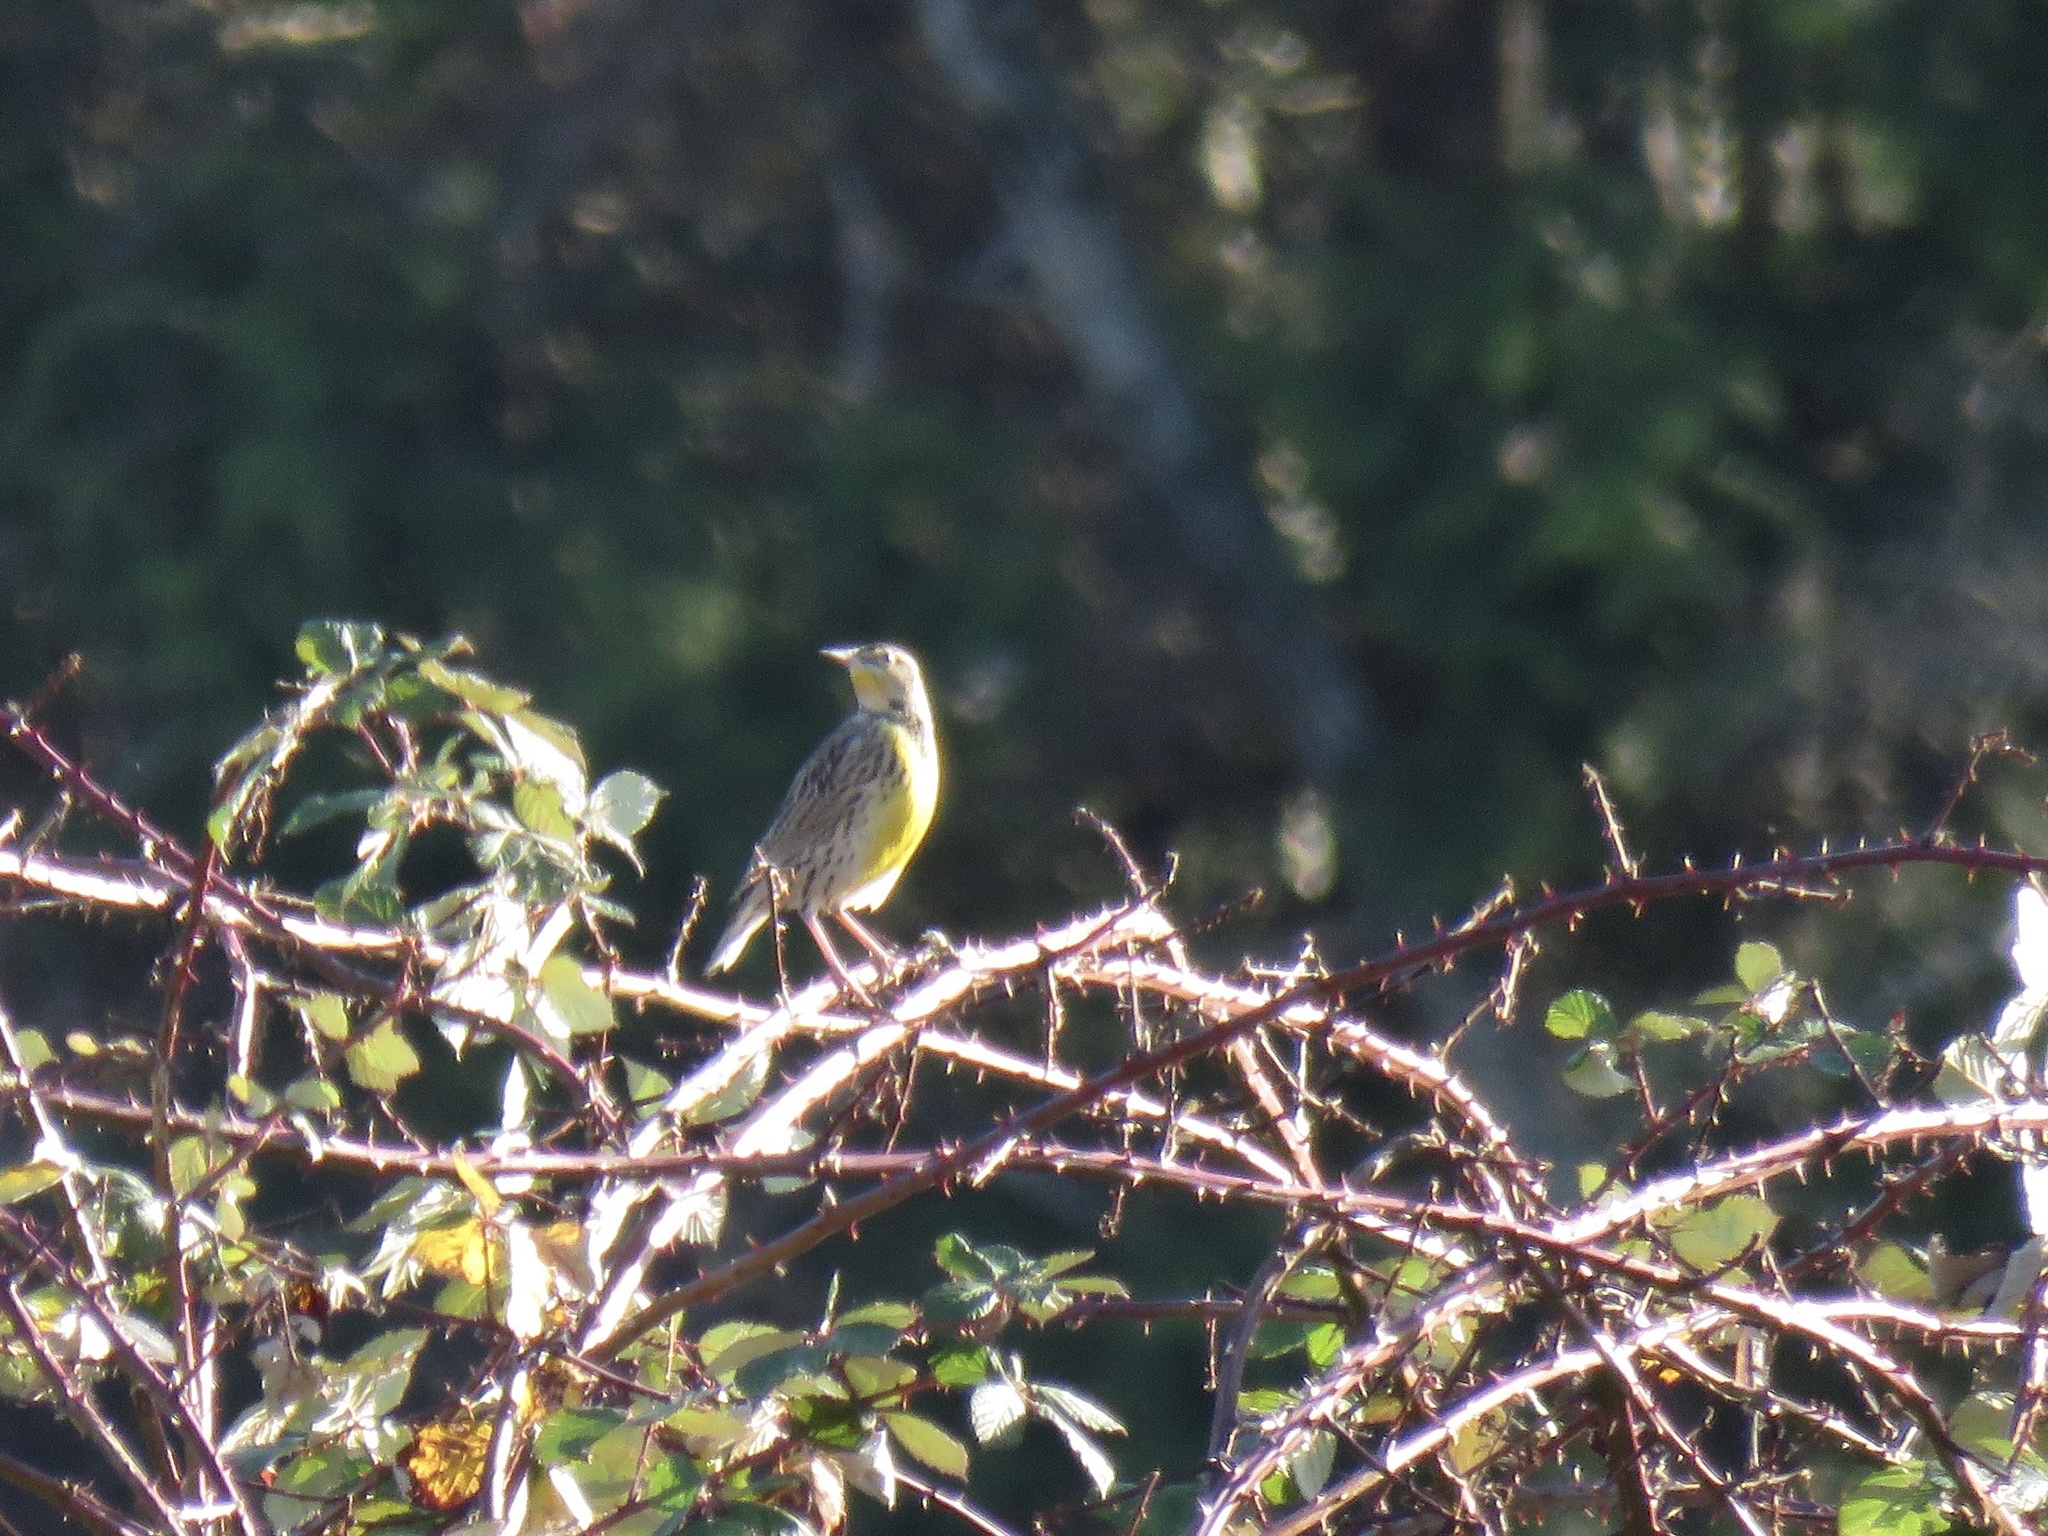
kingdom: Animalia
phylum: Chordata
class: Aves
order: Passeriformes
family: Icteridae
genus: Sturnella
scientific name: Sturnella neglecta
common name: Western meadowlark
